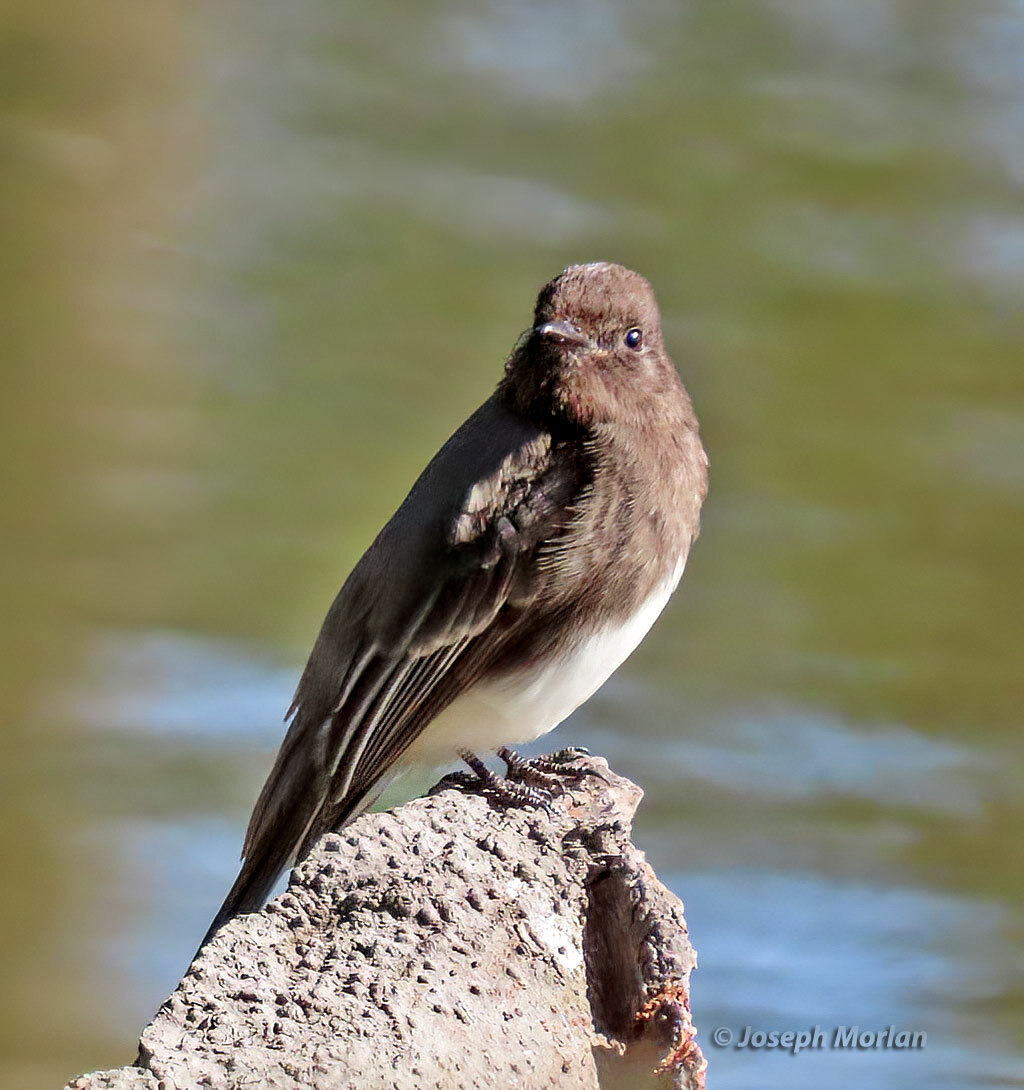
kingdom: Animalia
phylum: Chordata
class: Aves
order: Passeriformes
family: Tyrannidae
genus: Sayornis
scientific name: Sayornis nigricans
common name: Black phoebe
